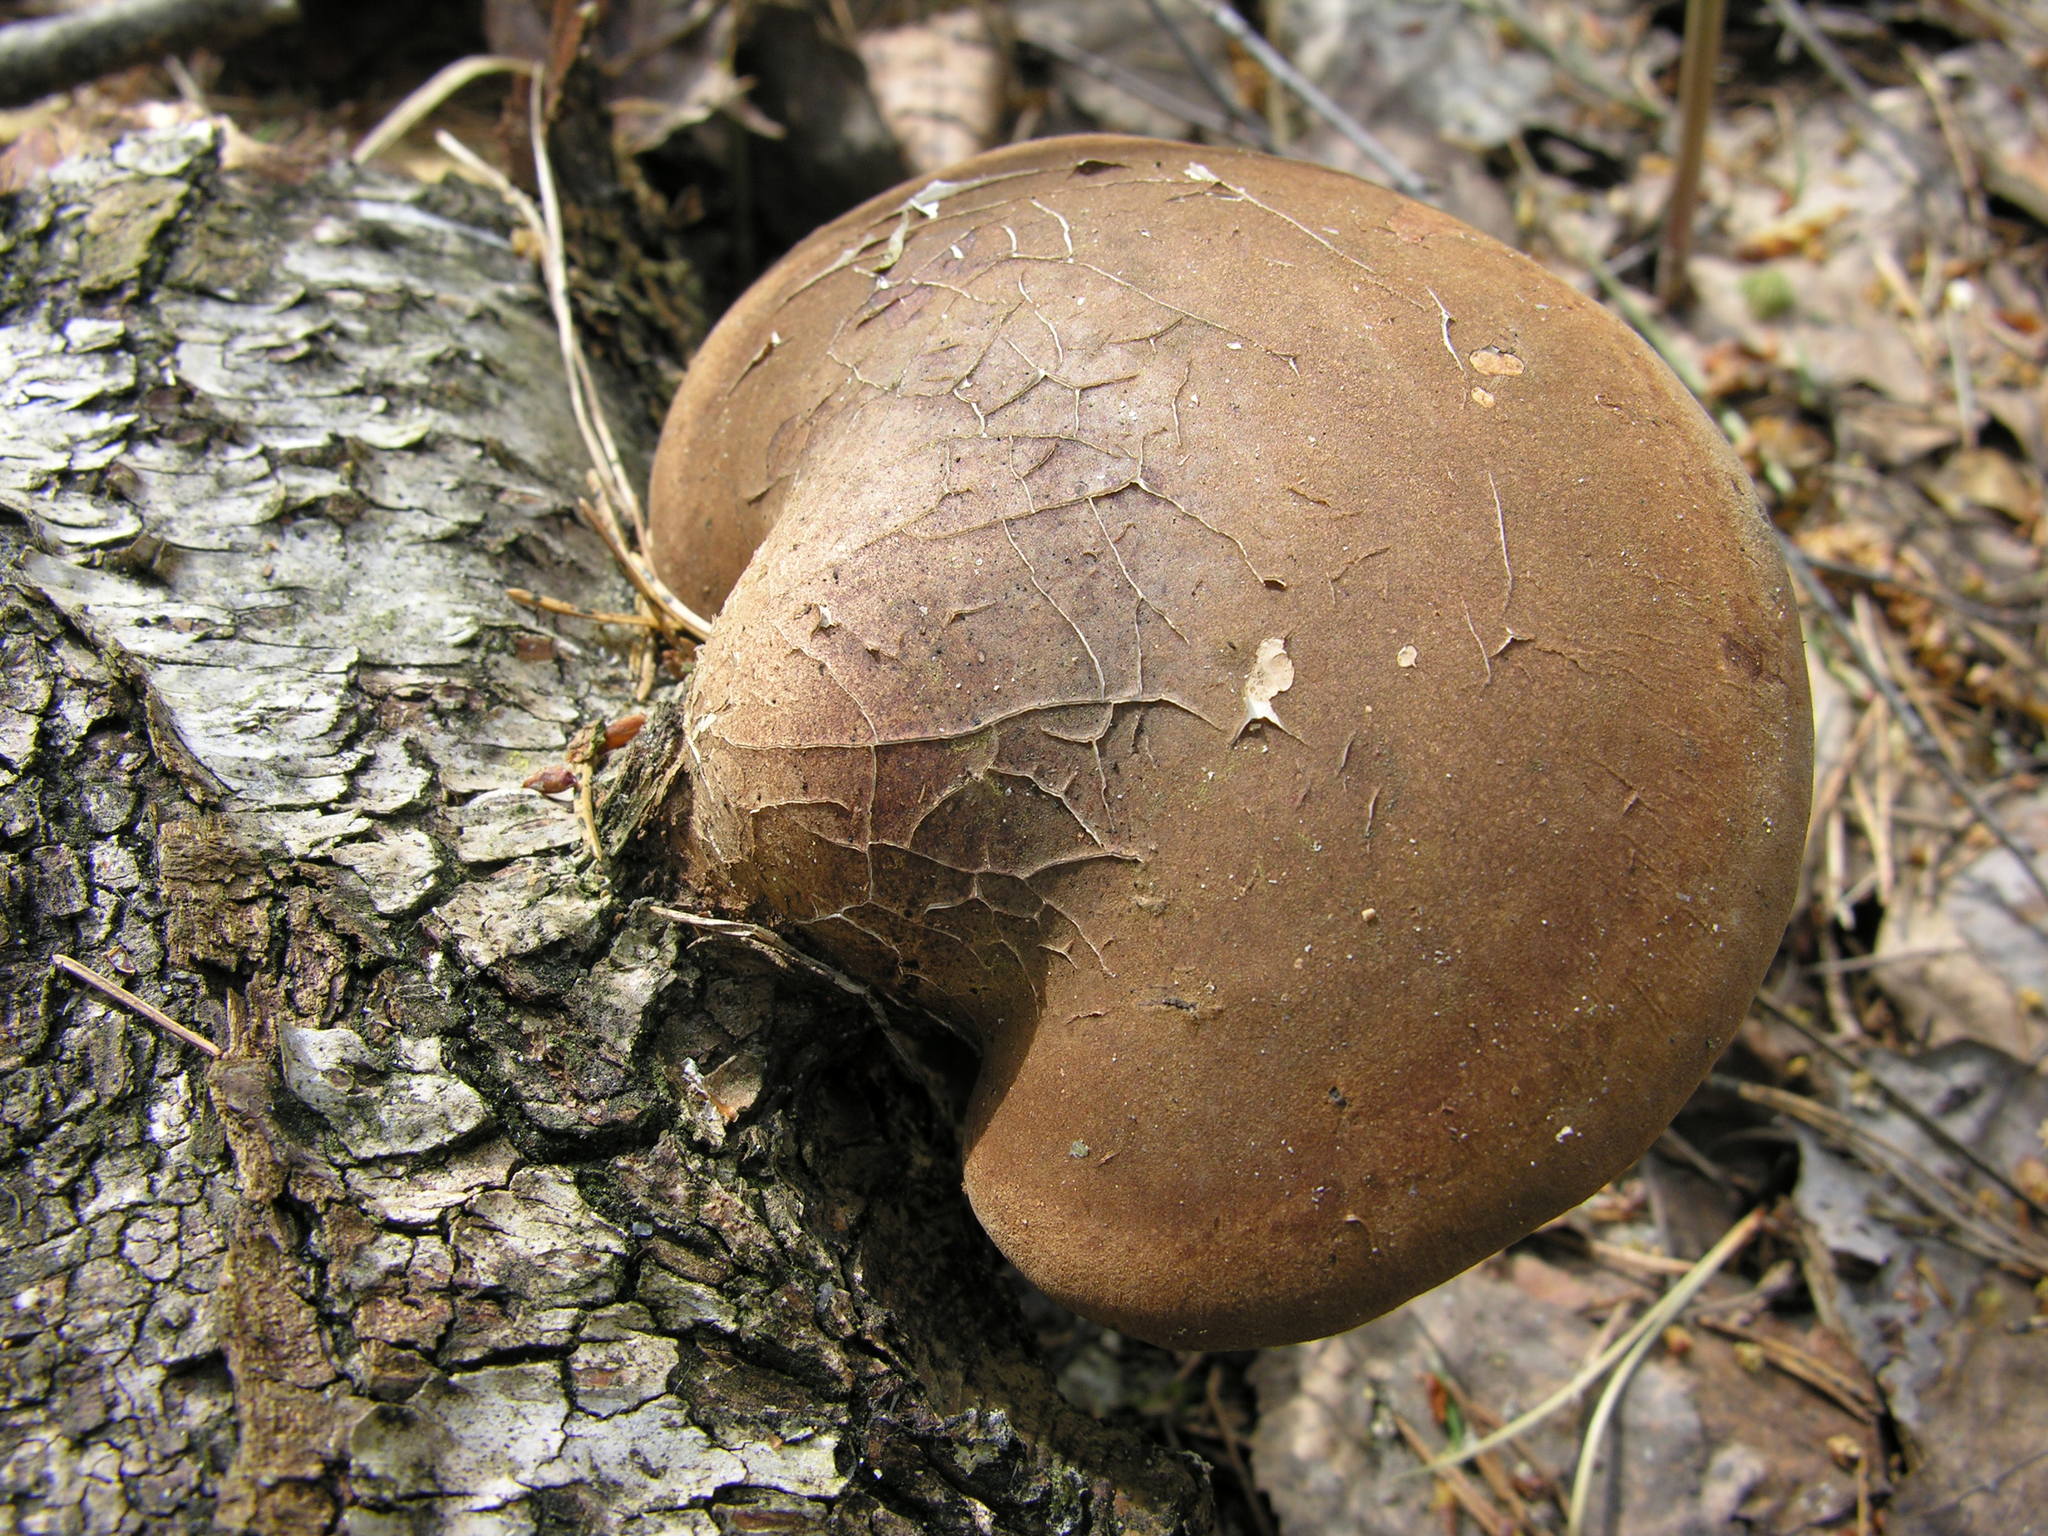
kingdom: Fungi
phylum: Basidiomycota
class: Agaricomycetes
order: Polyporales
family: Fomitopsidaceae
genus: Fomitopsis
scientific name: Fomitopsis betulina
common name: Birch polypore
